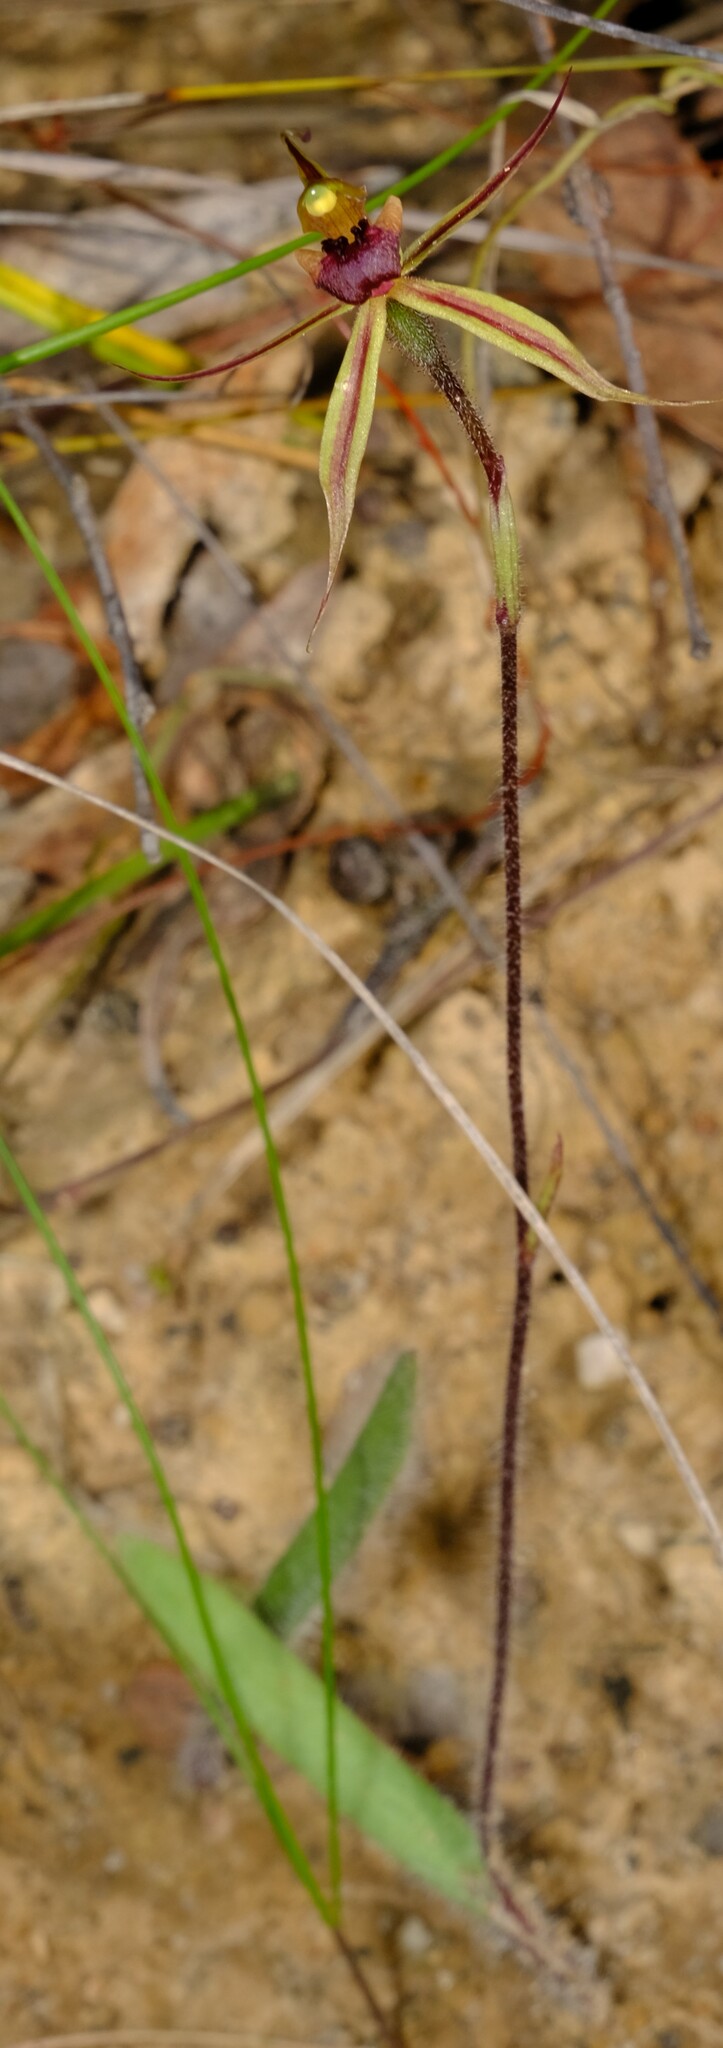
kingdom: Plantae
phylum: Tracheophyta
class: Liliopsida
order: Asparagales
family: Orchidaceae
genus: Caladenia
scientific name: Caladenia clavigera
